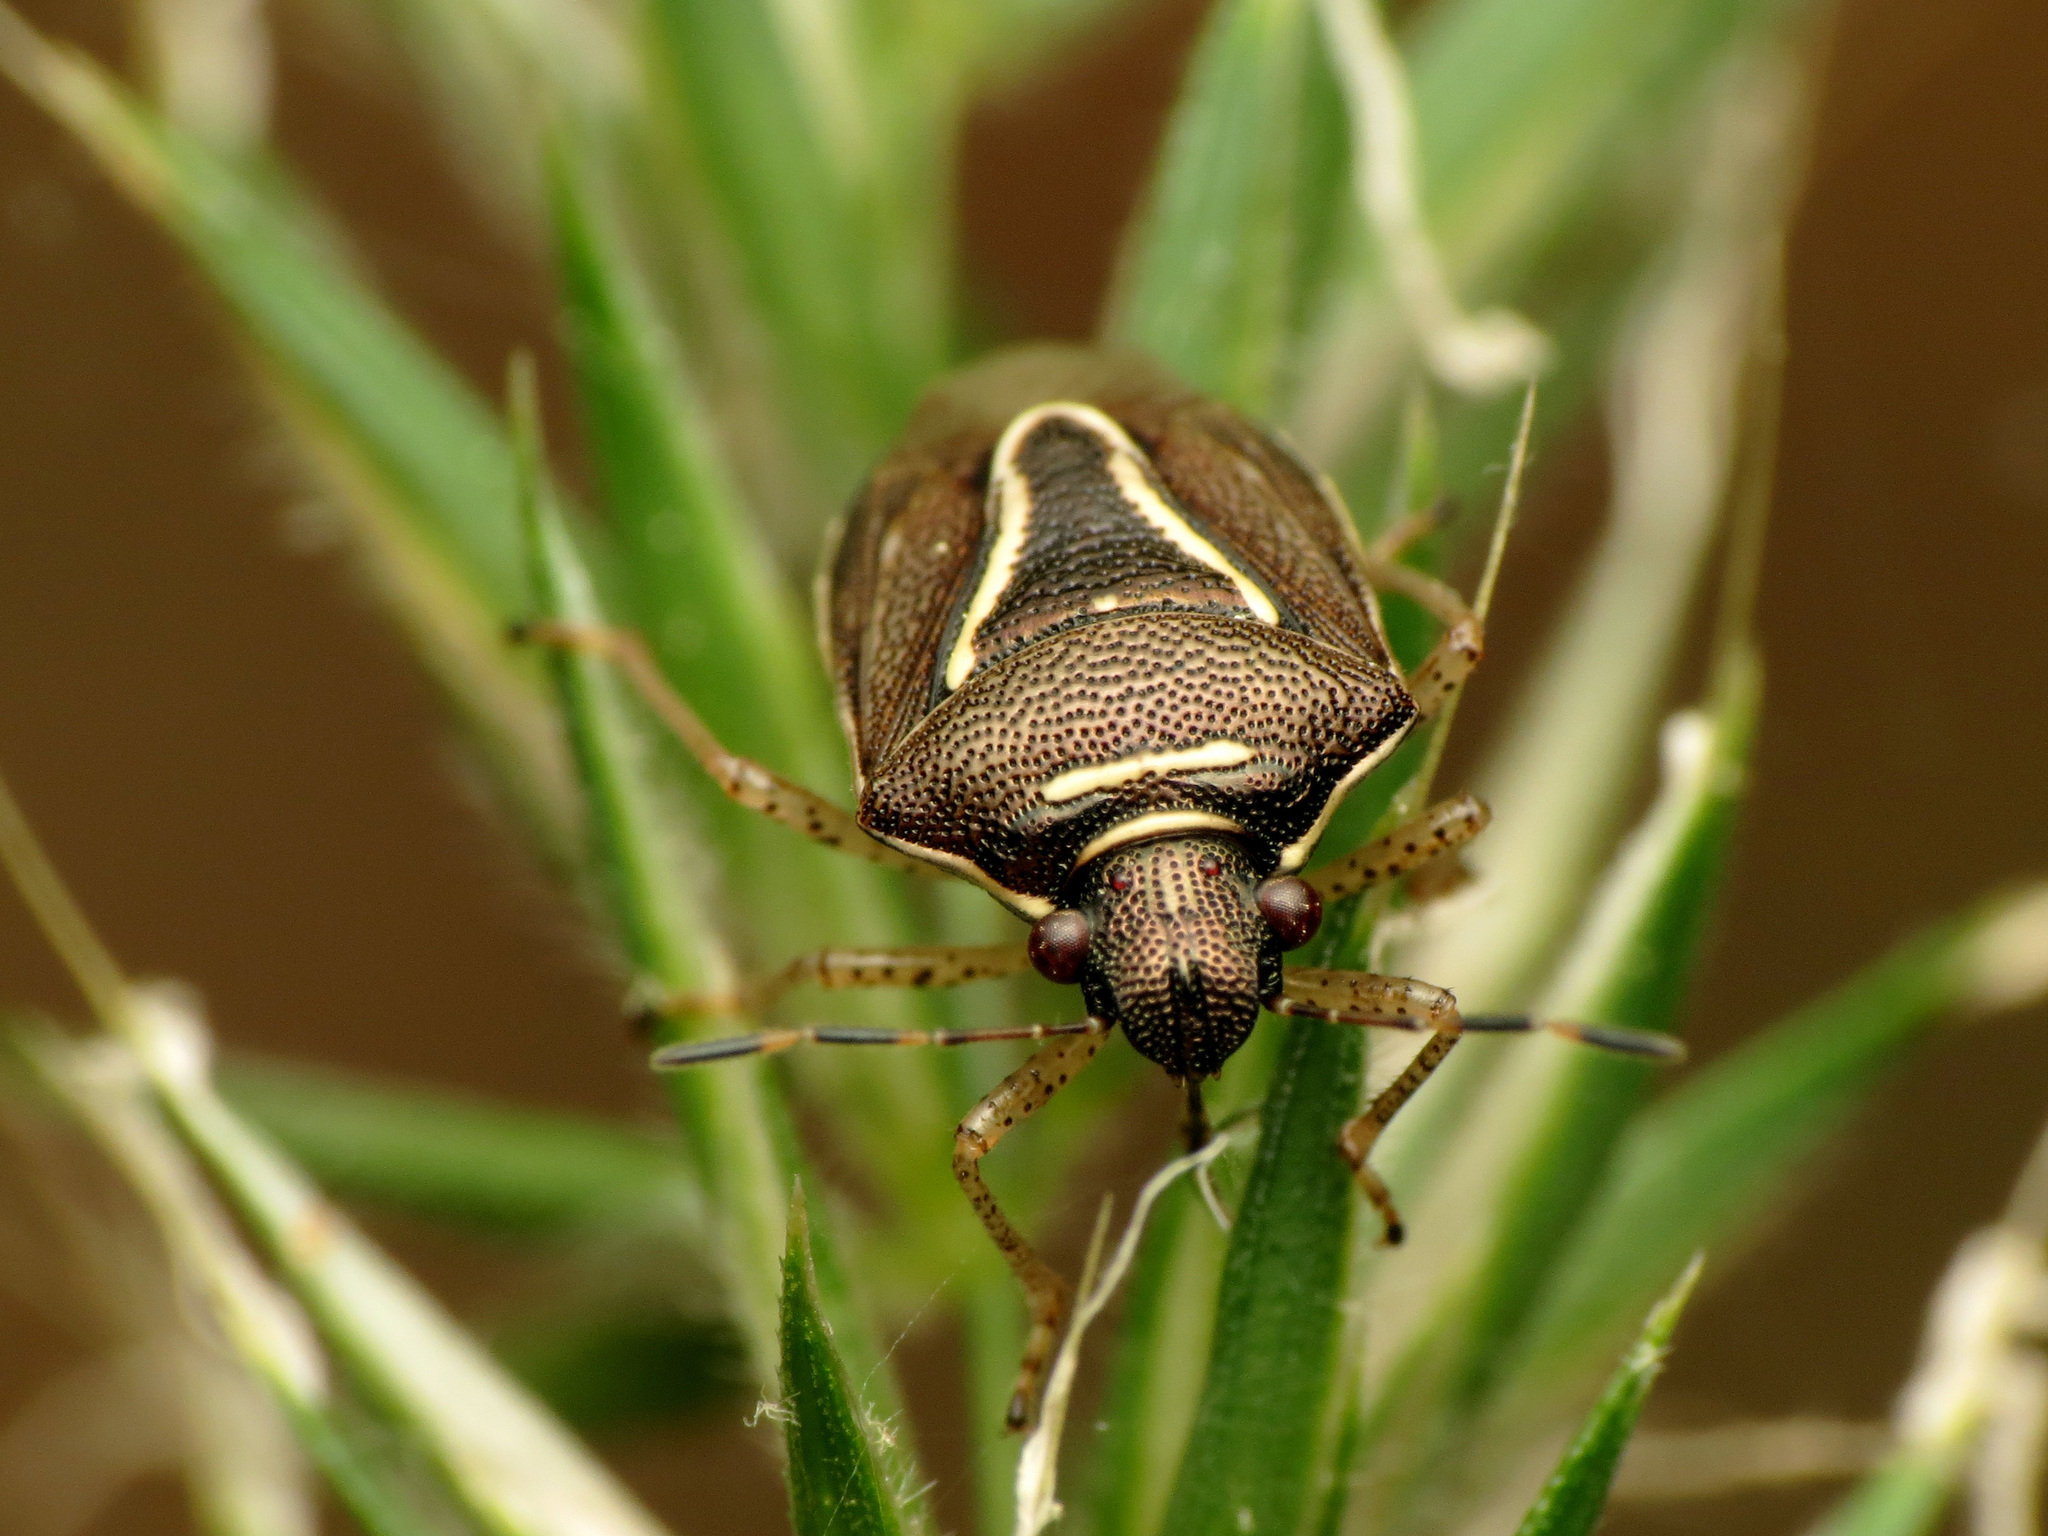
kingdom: Animalia
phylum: Arthropoda
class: Insecta
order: Hemiptera
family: Pentatomidae
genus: Mormidea
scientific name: Mormidea lugens
